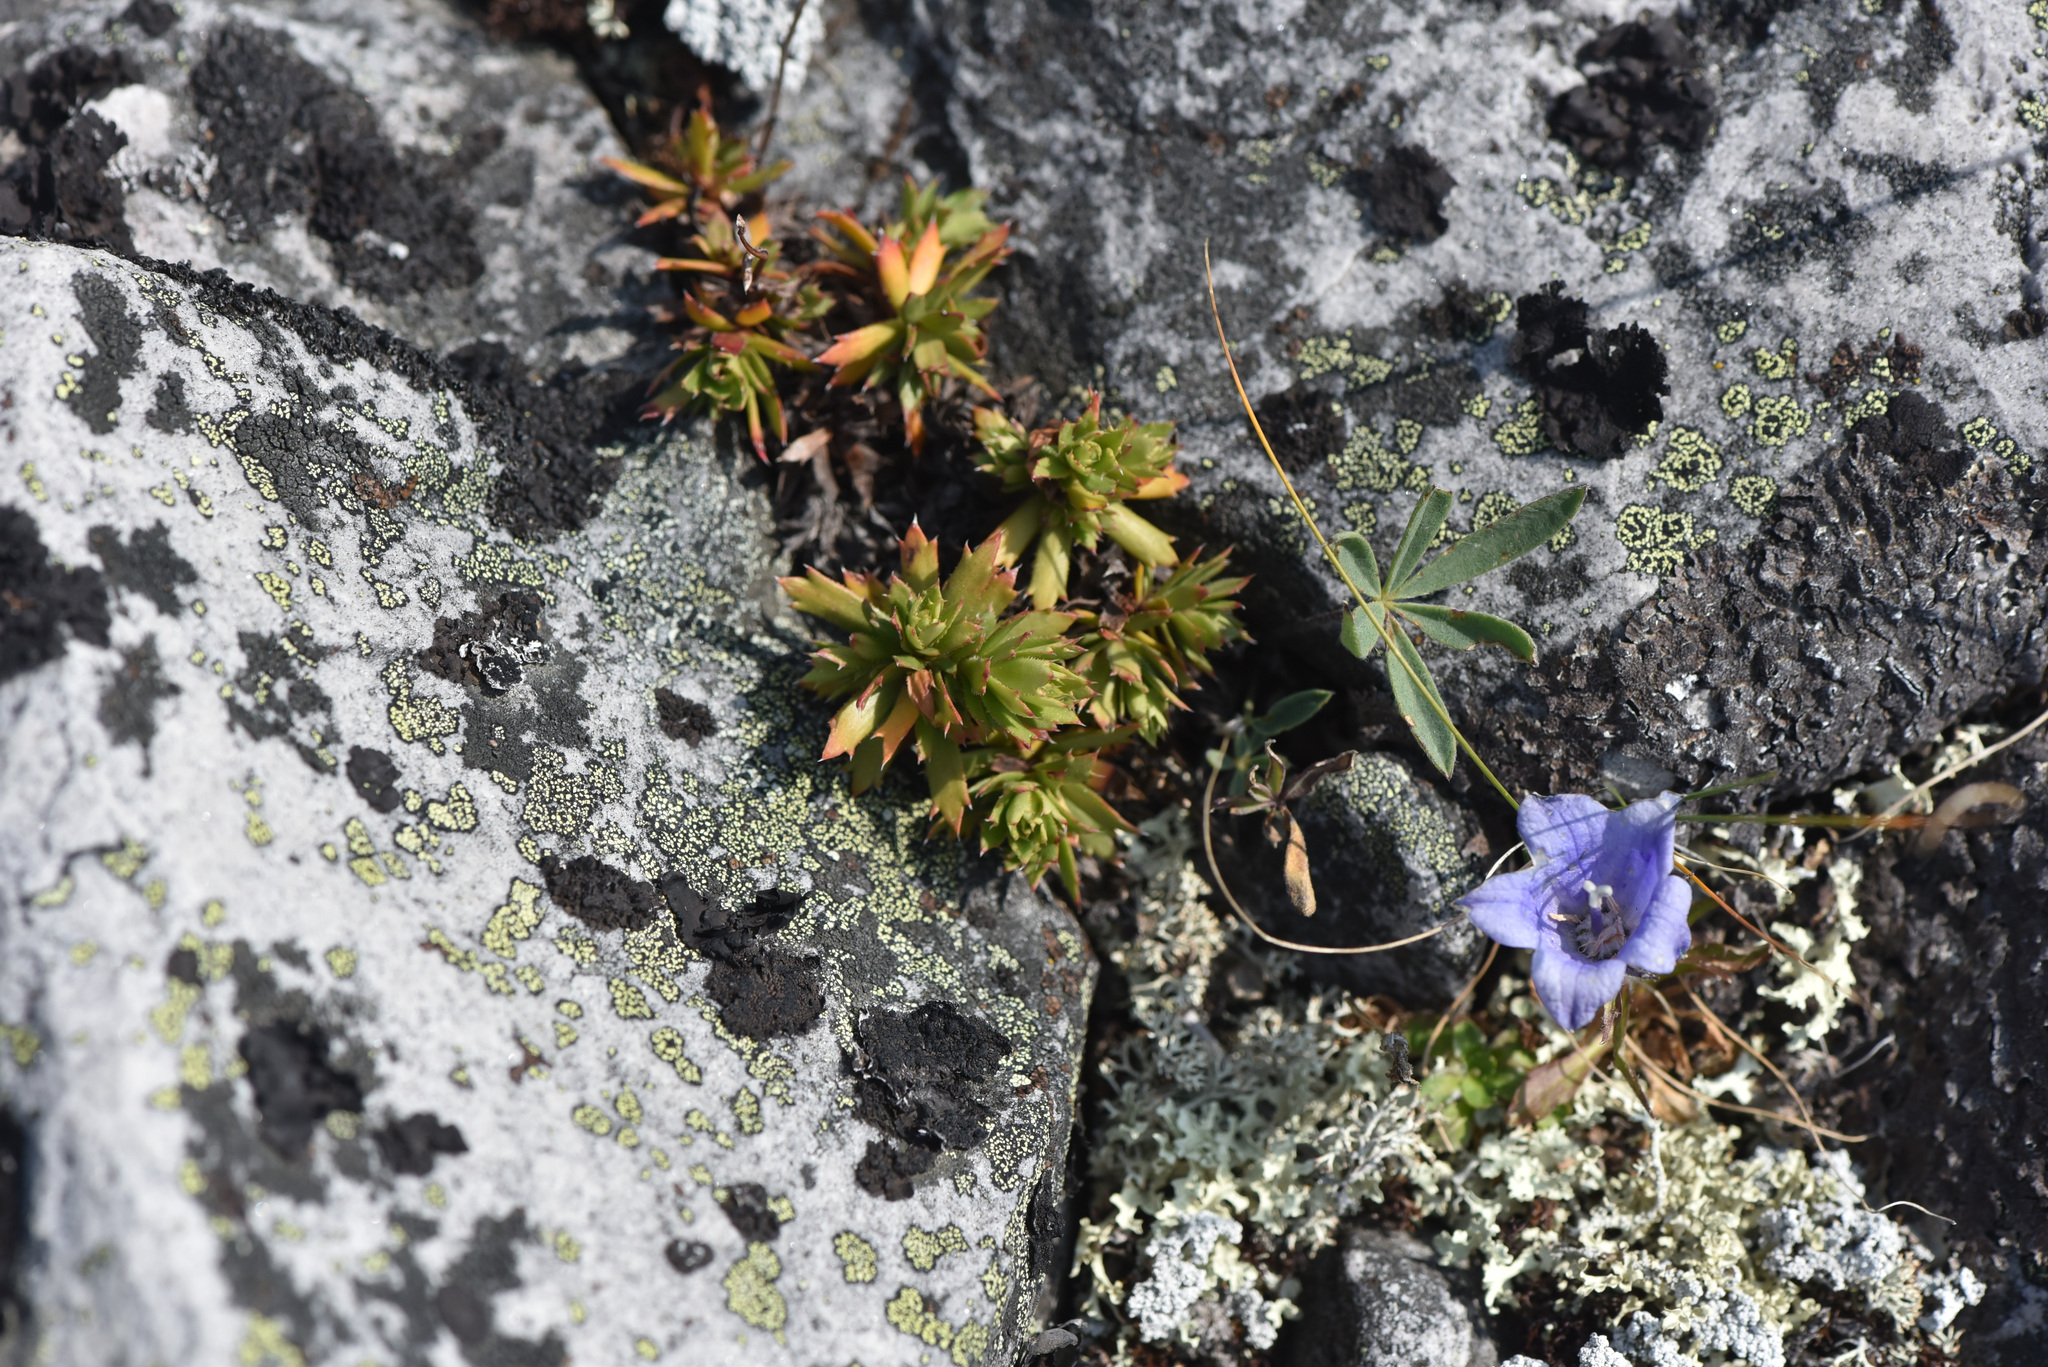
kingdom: Plantae
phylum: Tracheophyta
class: Magnoliopsida
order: Saxifragales
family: Saxifragaceae
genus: Saxifraga
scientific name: Saxifraga tricuspidata
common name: Prickly saxifrage
